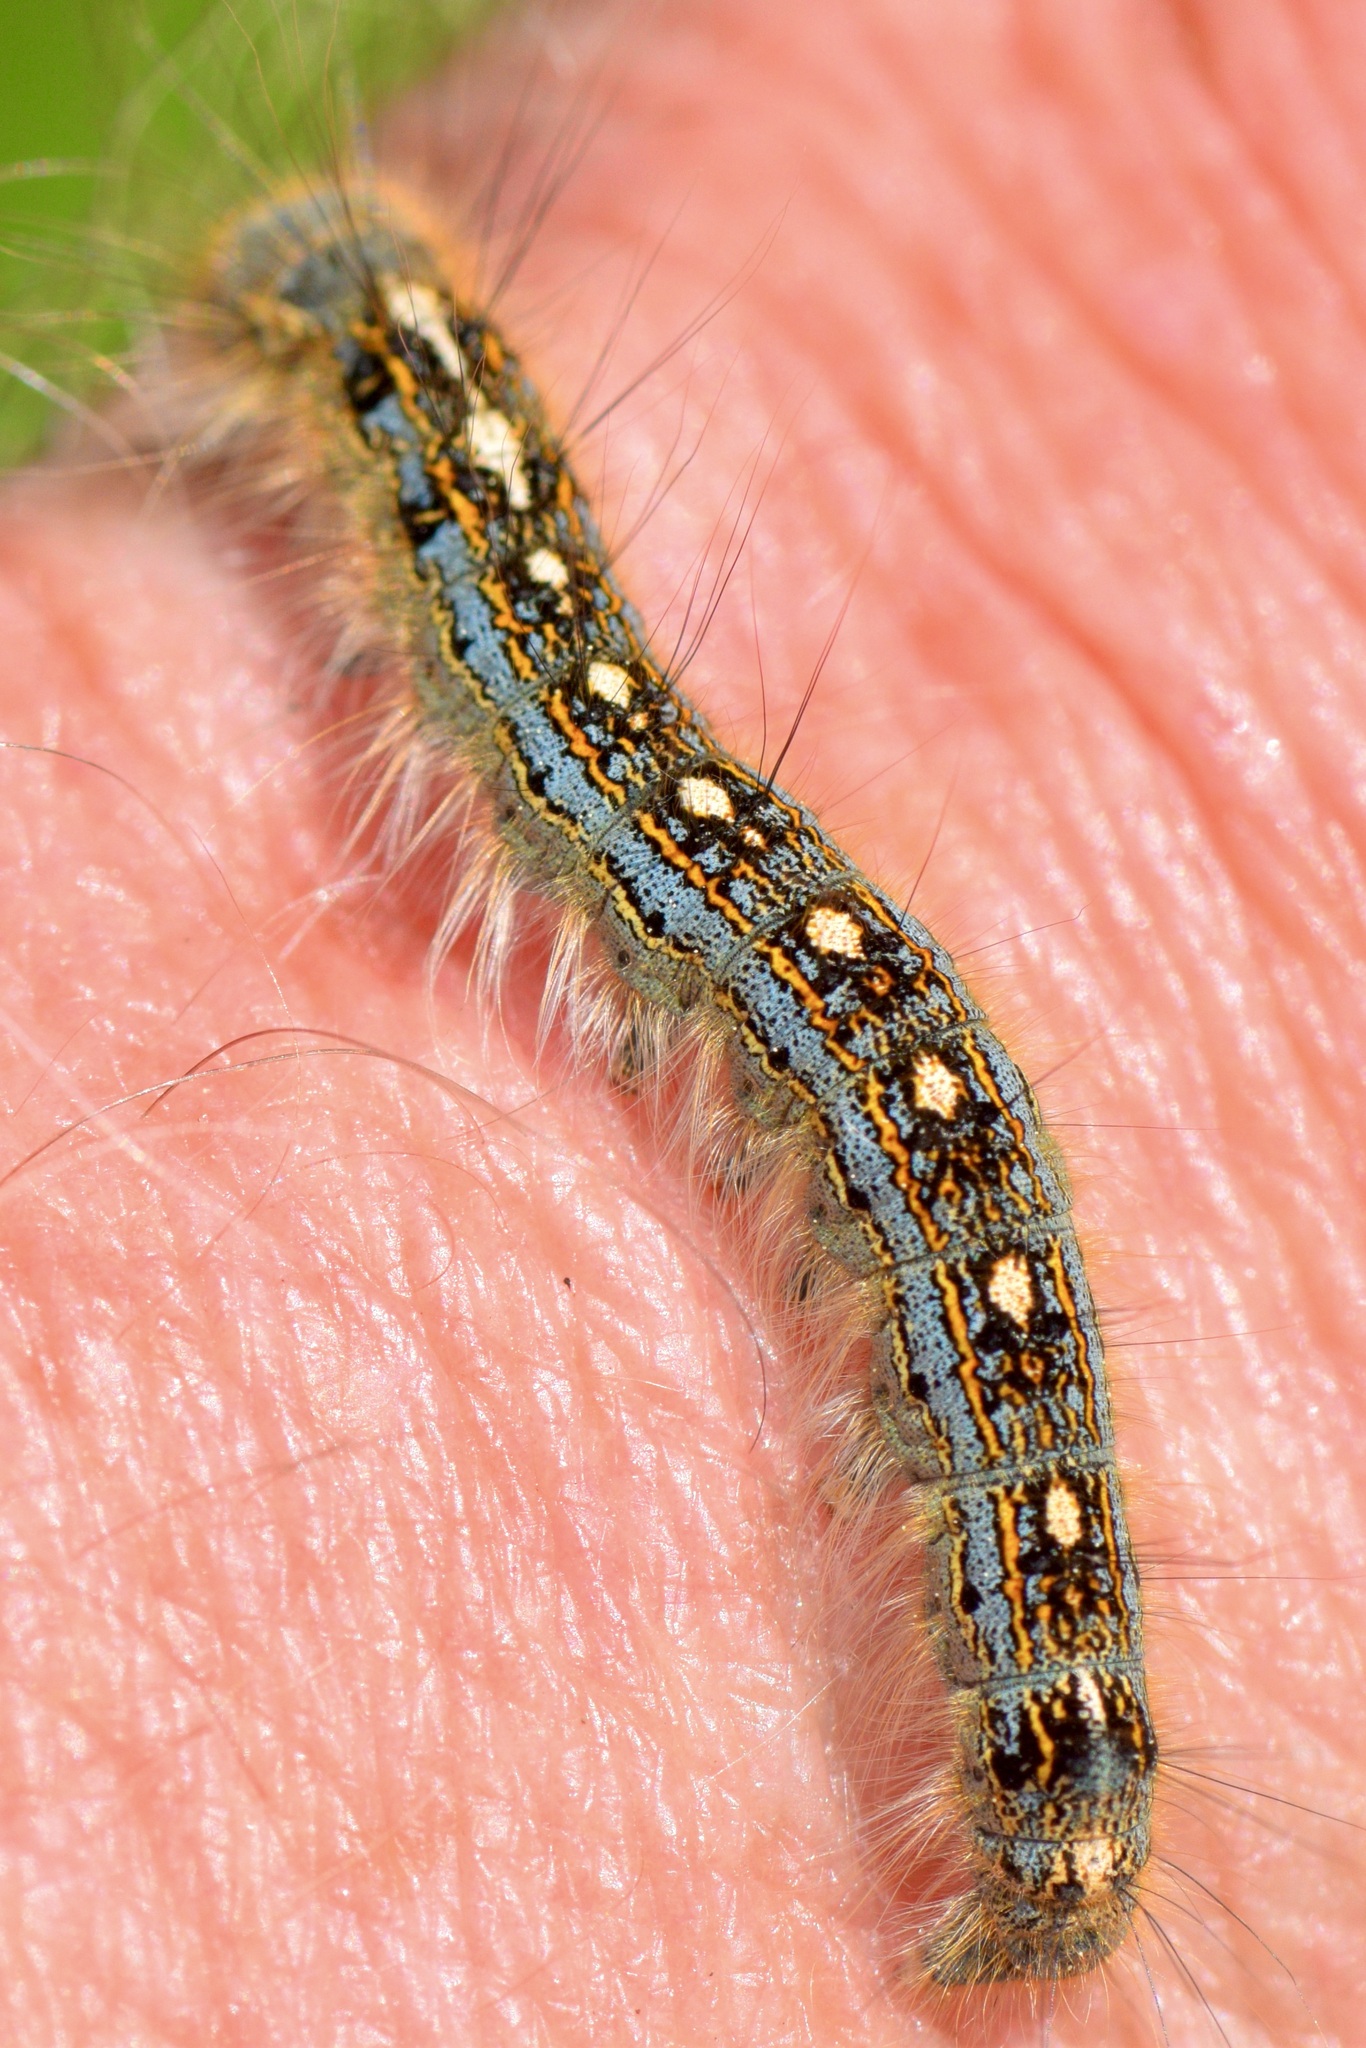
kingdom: Animalia
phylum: Arthropoda
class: Insecta
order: Lepidoptera
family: Lasiocampidae
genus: Malacosoma
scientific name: Malacosoma disstria
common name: Forest tent caterpillar
